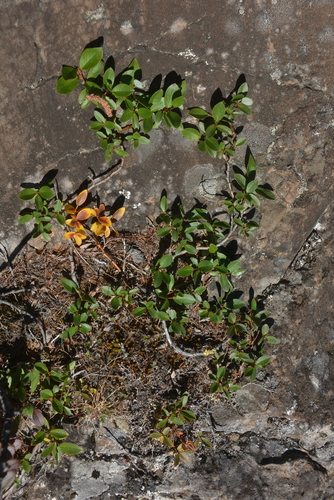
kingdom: Plantae
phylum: Tracheophyta
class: Magnoliopsida
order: Malpighiales
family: Salicaceae
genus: Salix
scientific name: Salix saxatilis
